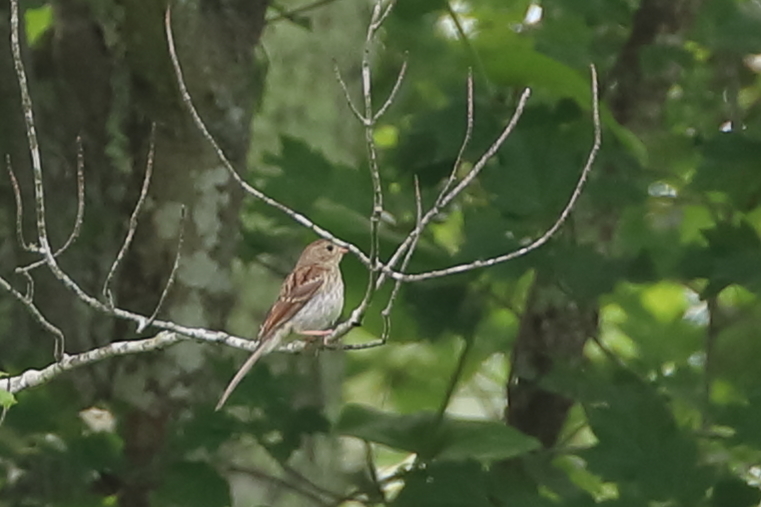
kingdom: Animalia
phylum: Chordata
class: Aves
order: Passeriformes
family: Passerellidae
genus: Spizella
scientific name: Spizella pusilla
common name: Field sparrow
